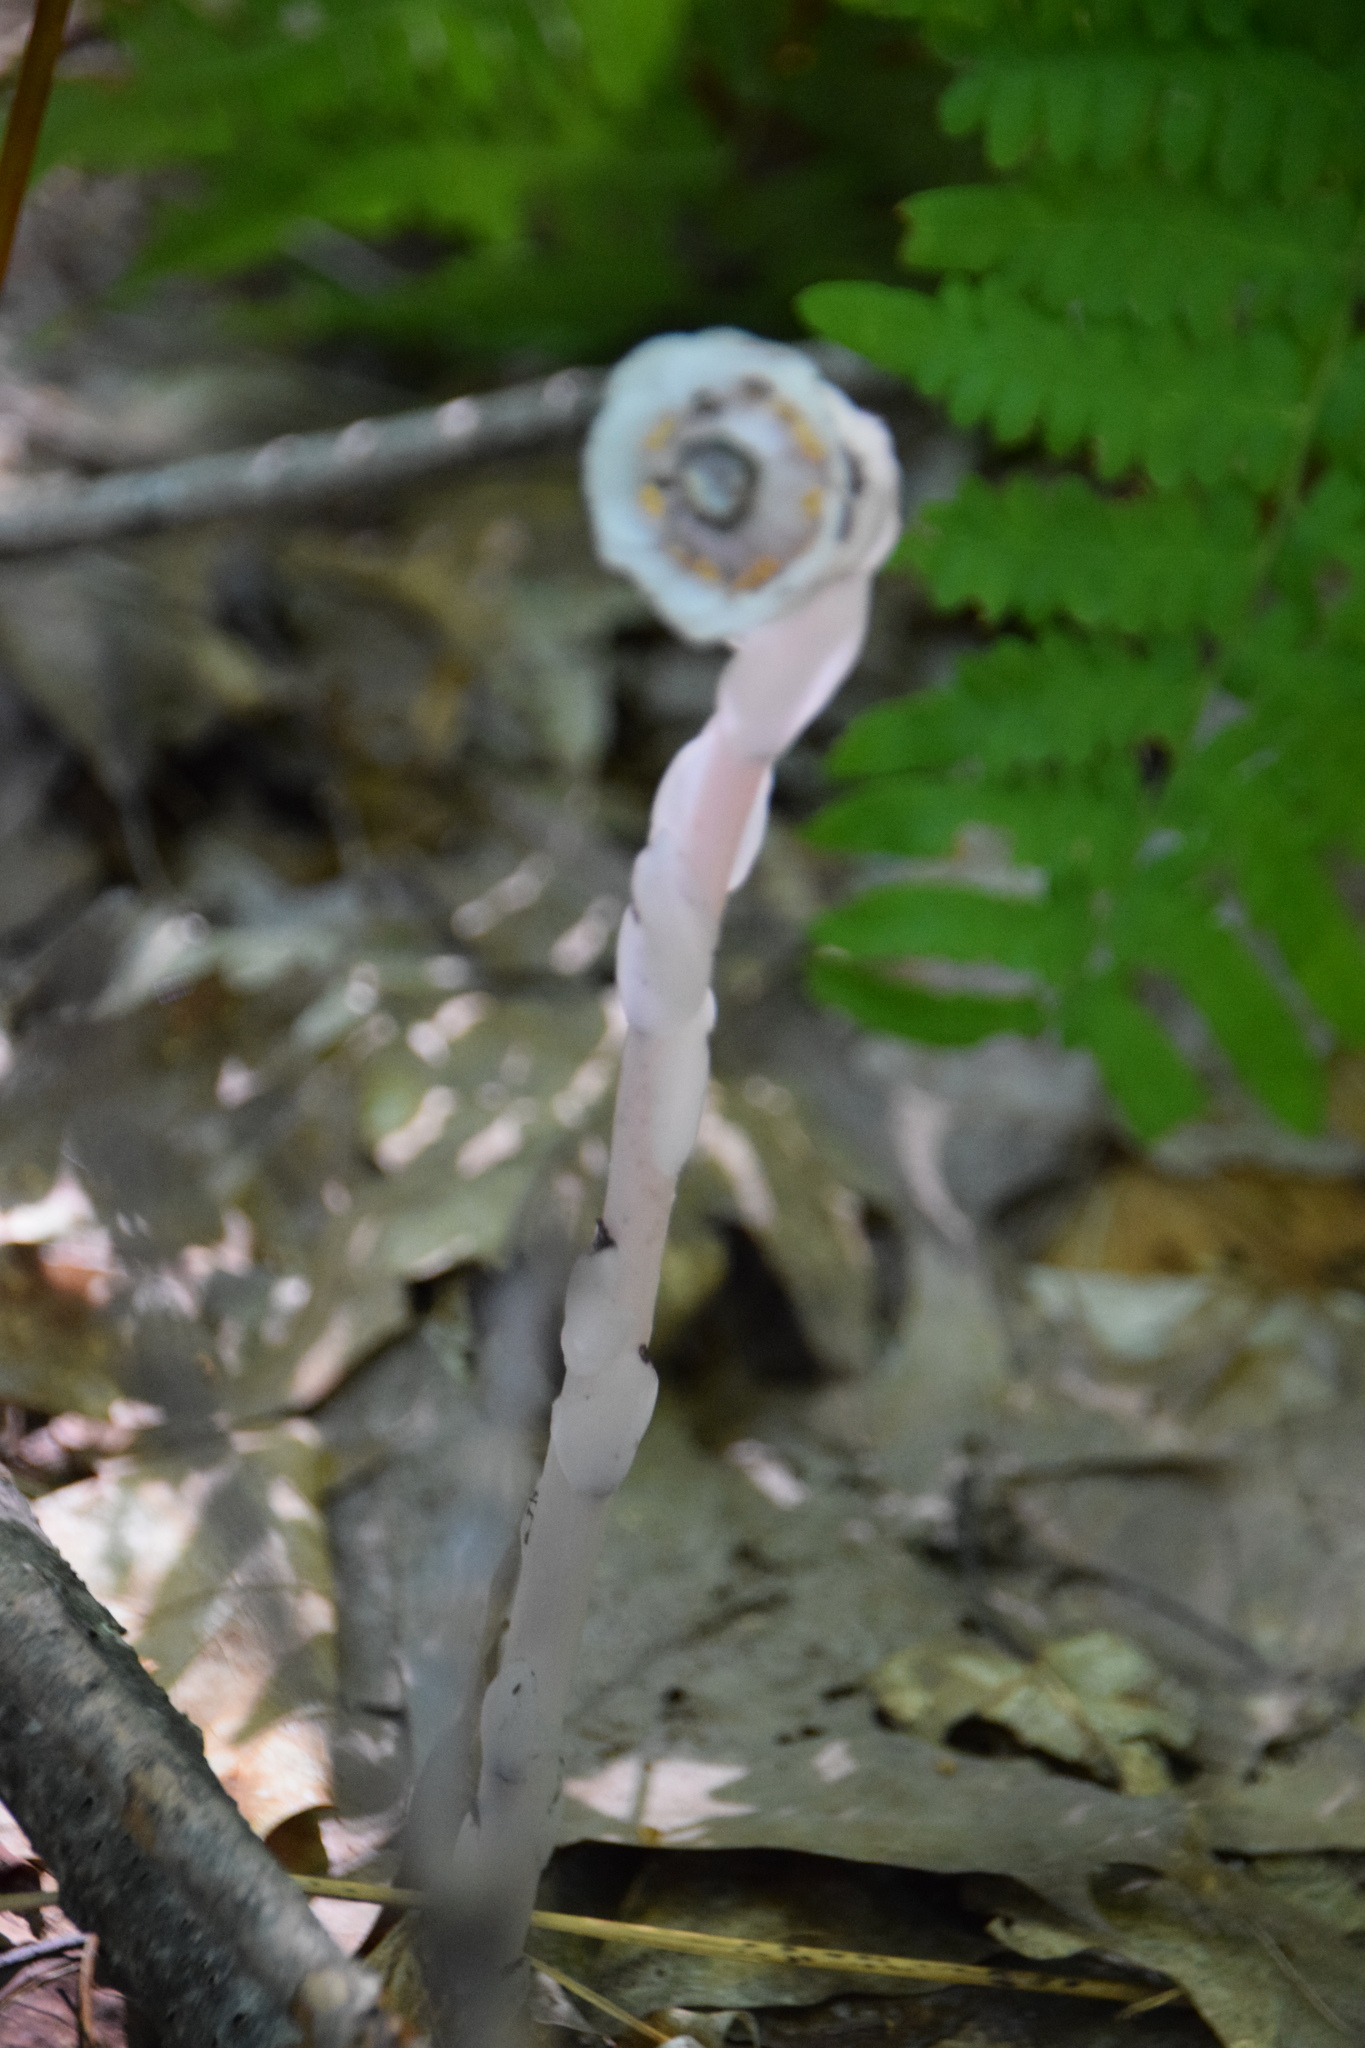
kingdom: Plantae
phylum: Tracheophyta
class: Magnoliopsida
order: Ericales
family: Ericaceae
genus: Monotropa
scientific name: Monotropa uniflora
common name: Convulsion root
